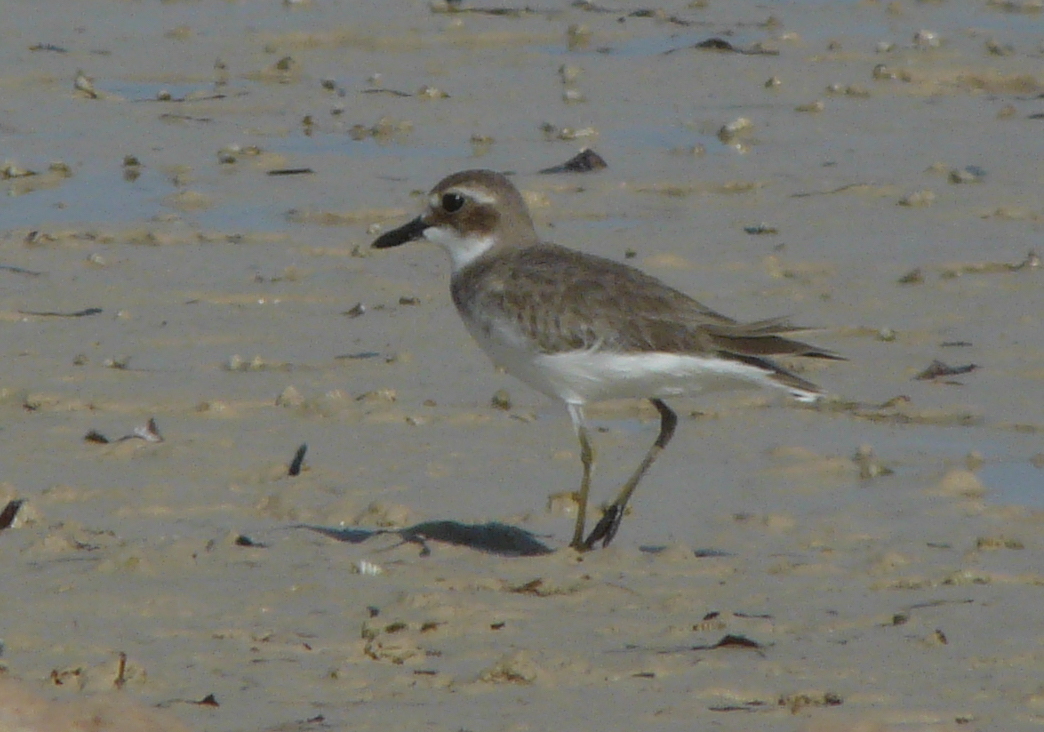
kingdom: Animalia
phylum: Chordata
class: Aves
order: Charadriiformes
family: Charadriidae
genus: Charadrius
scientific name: Charadrius leschenaultii
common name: Greater sand plover
